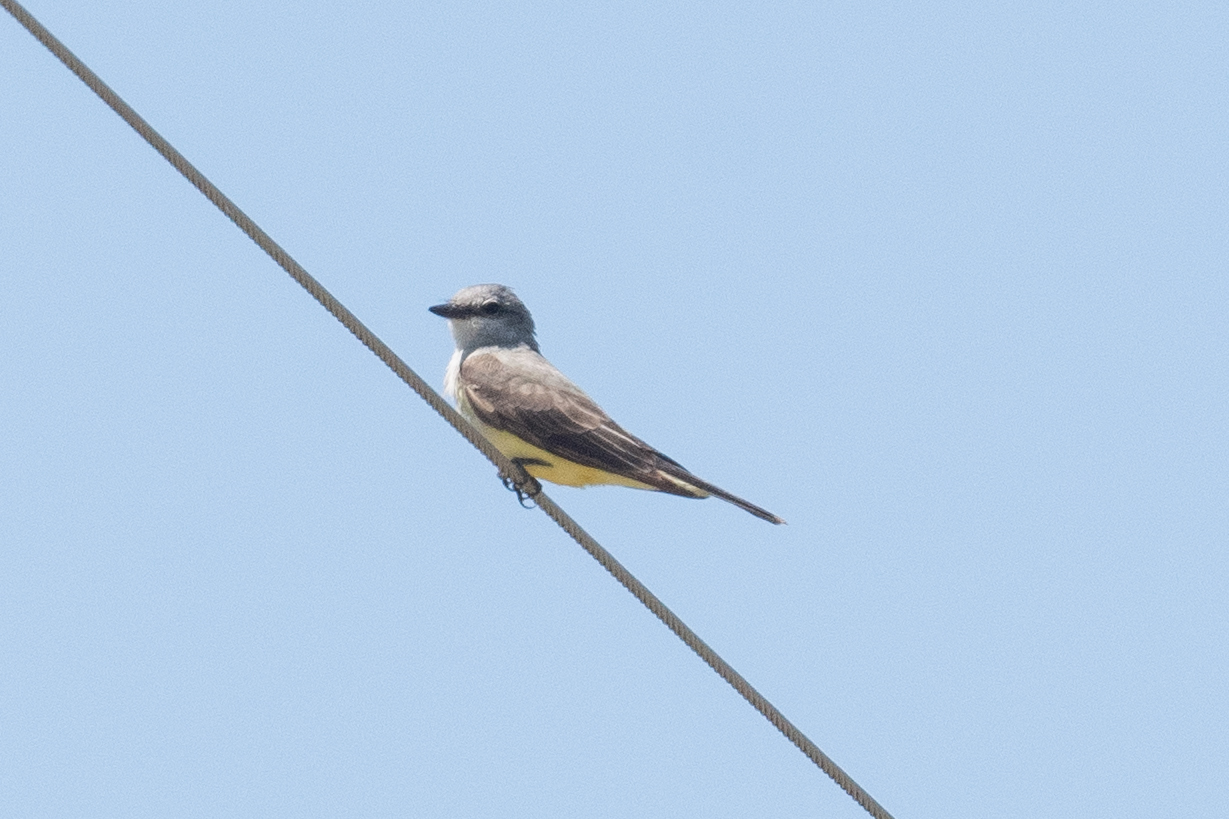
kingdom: Animalia
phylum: Chordata
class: Aves
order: Passeriformes
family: Tyrannidae
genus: Tyrannus
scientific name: Tyrannus verticalis
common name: Western kingbird
